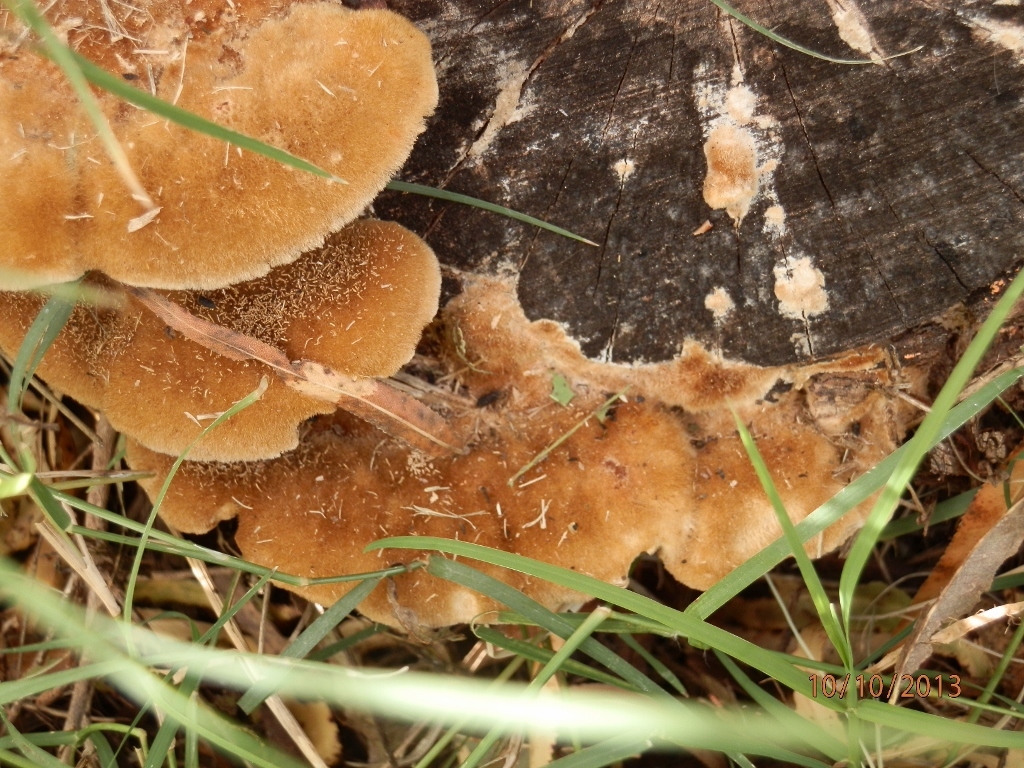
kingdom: Fungi
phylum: Basidiomycota
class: Agaricomycetes
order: Polyporales
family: Polyporaceae
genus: Coriolopsis
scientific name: Coriolopsis gallica
